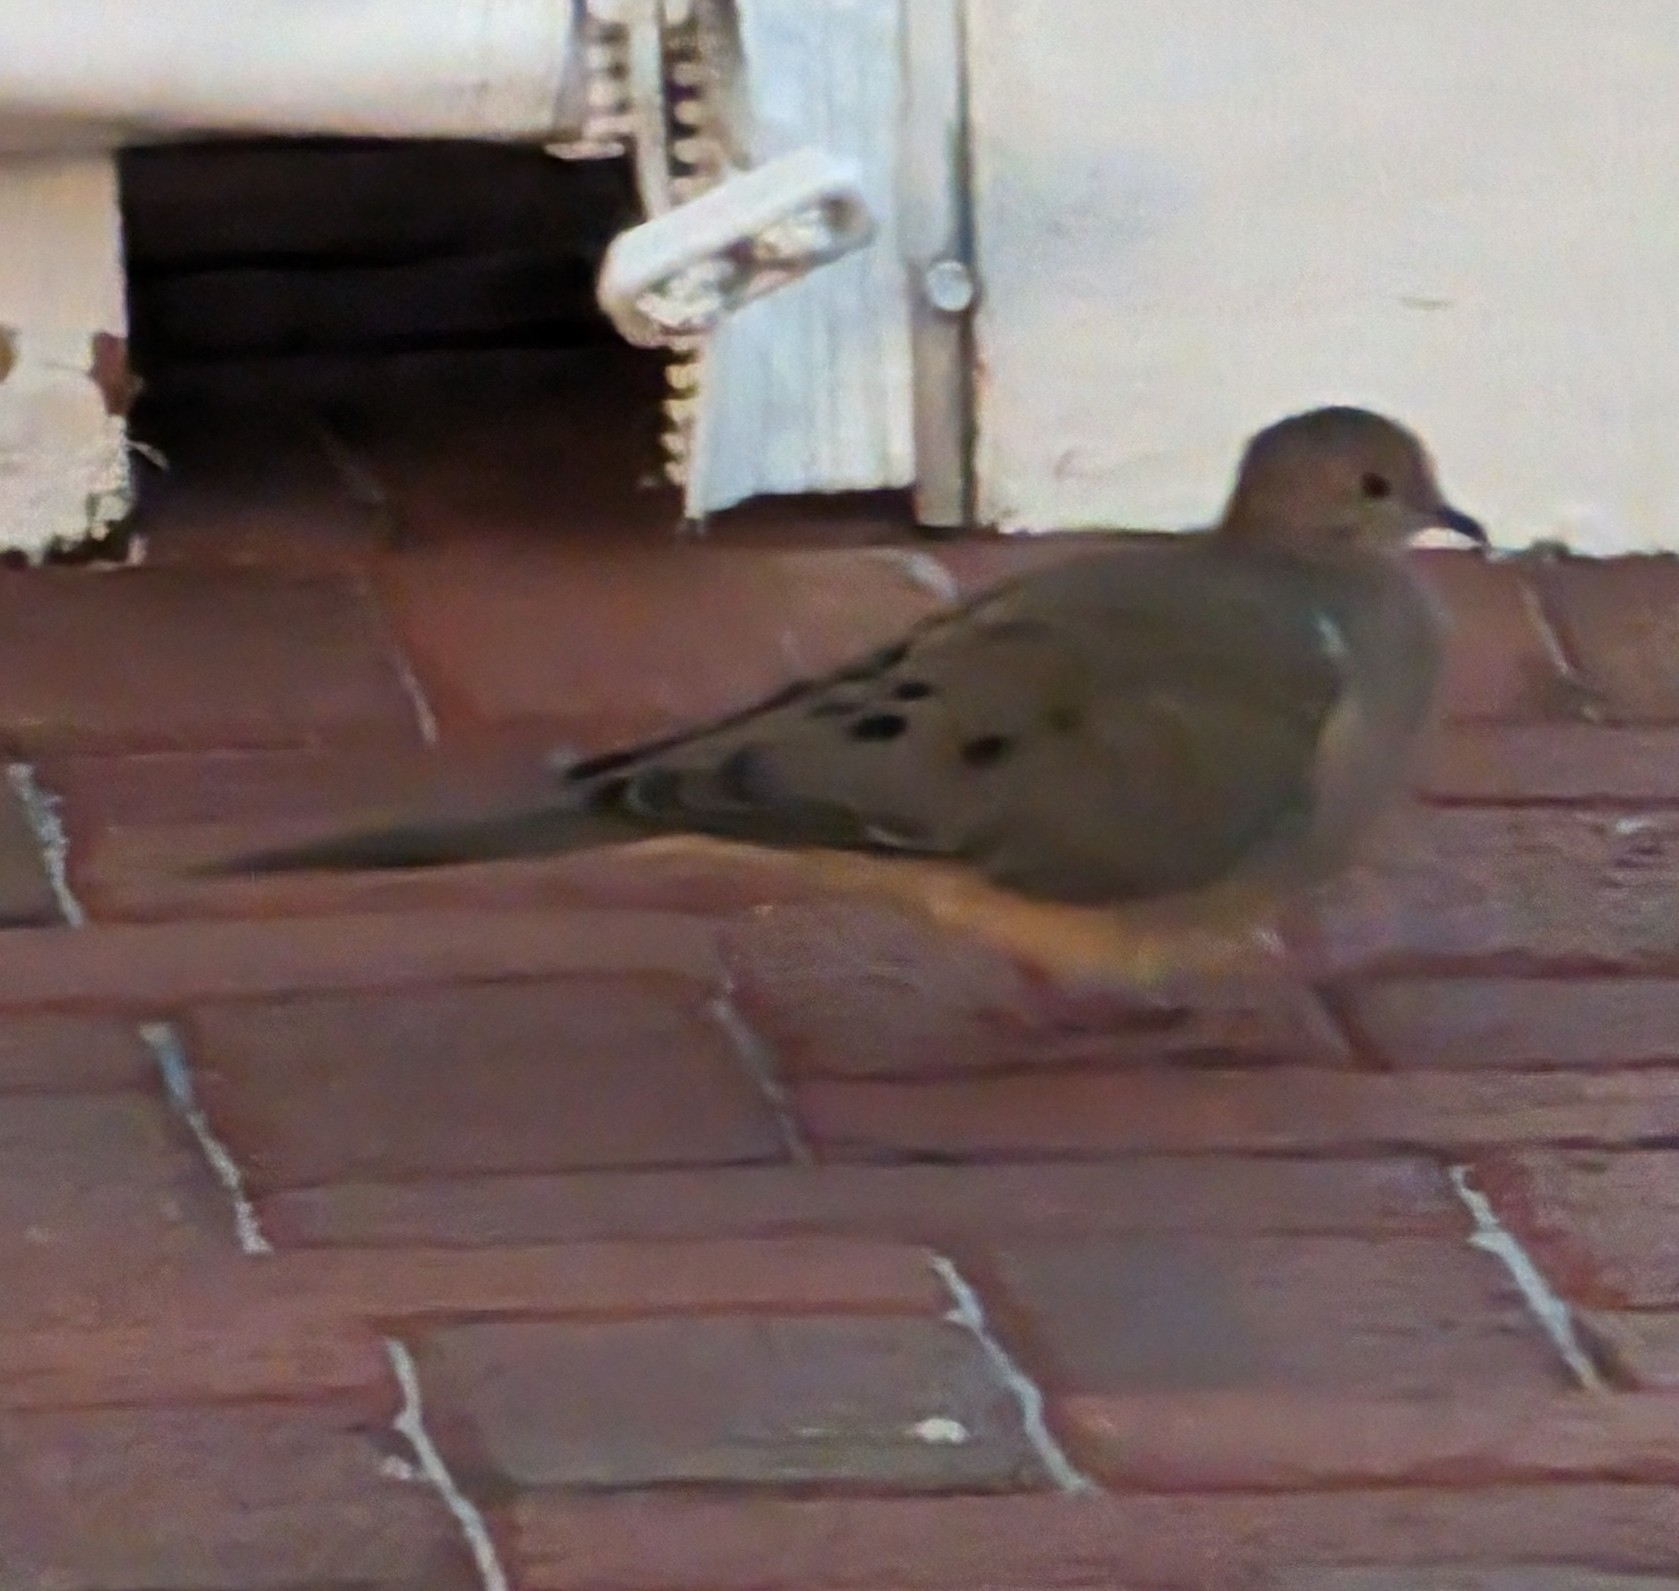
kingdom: Animalia
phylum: Chordata
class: Aves
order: Columbiformes
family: Columbidae
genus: Zenaida
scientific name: Zenaida macroura
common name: Mourning dove
